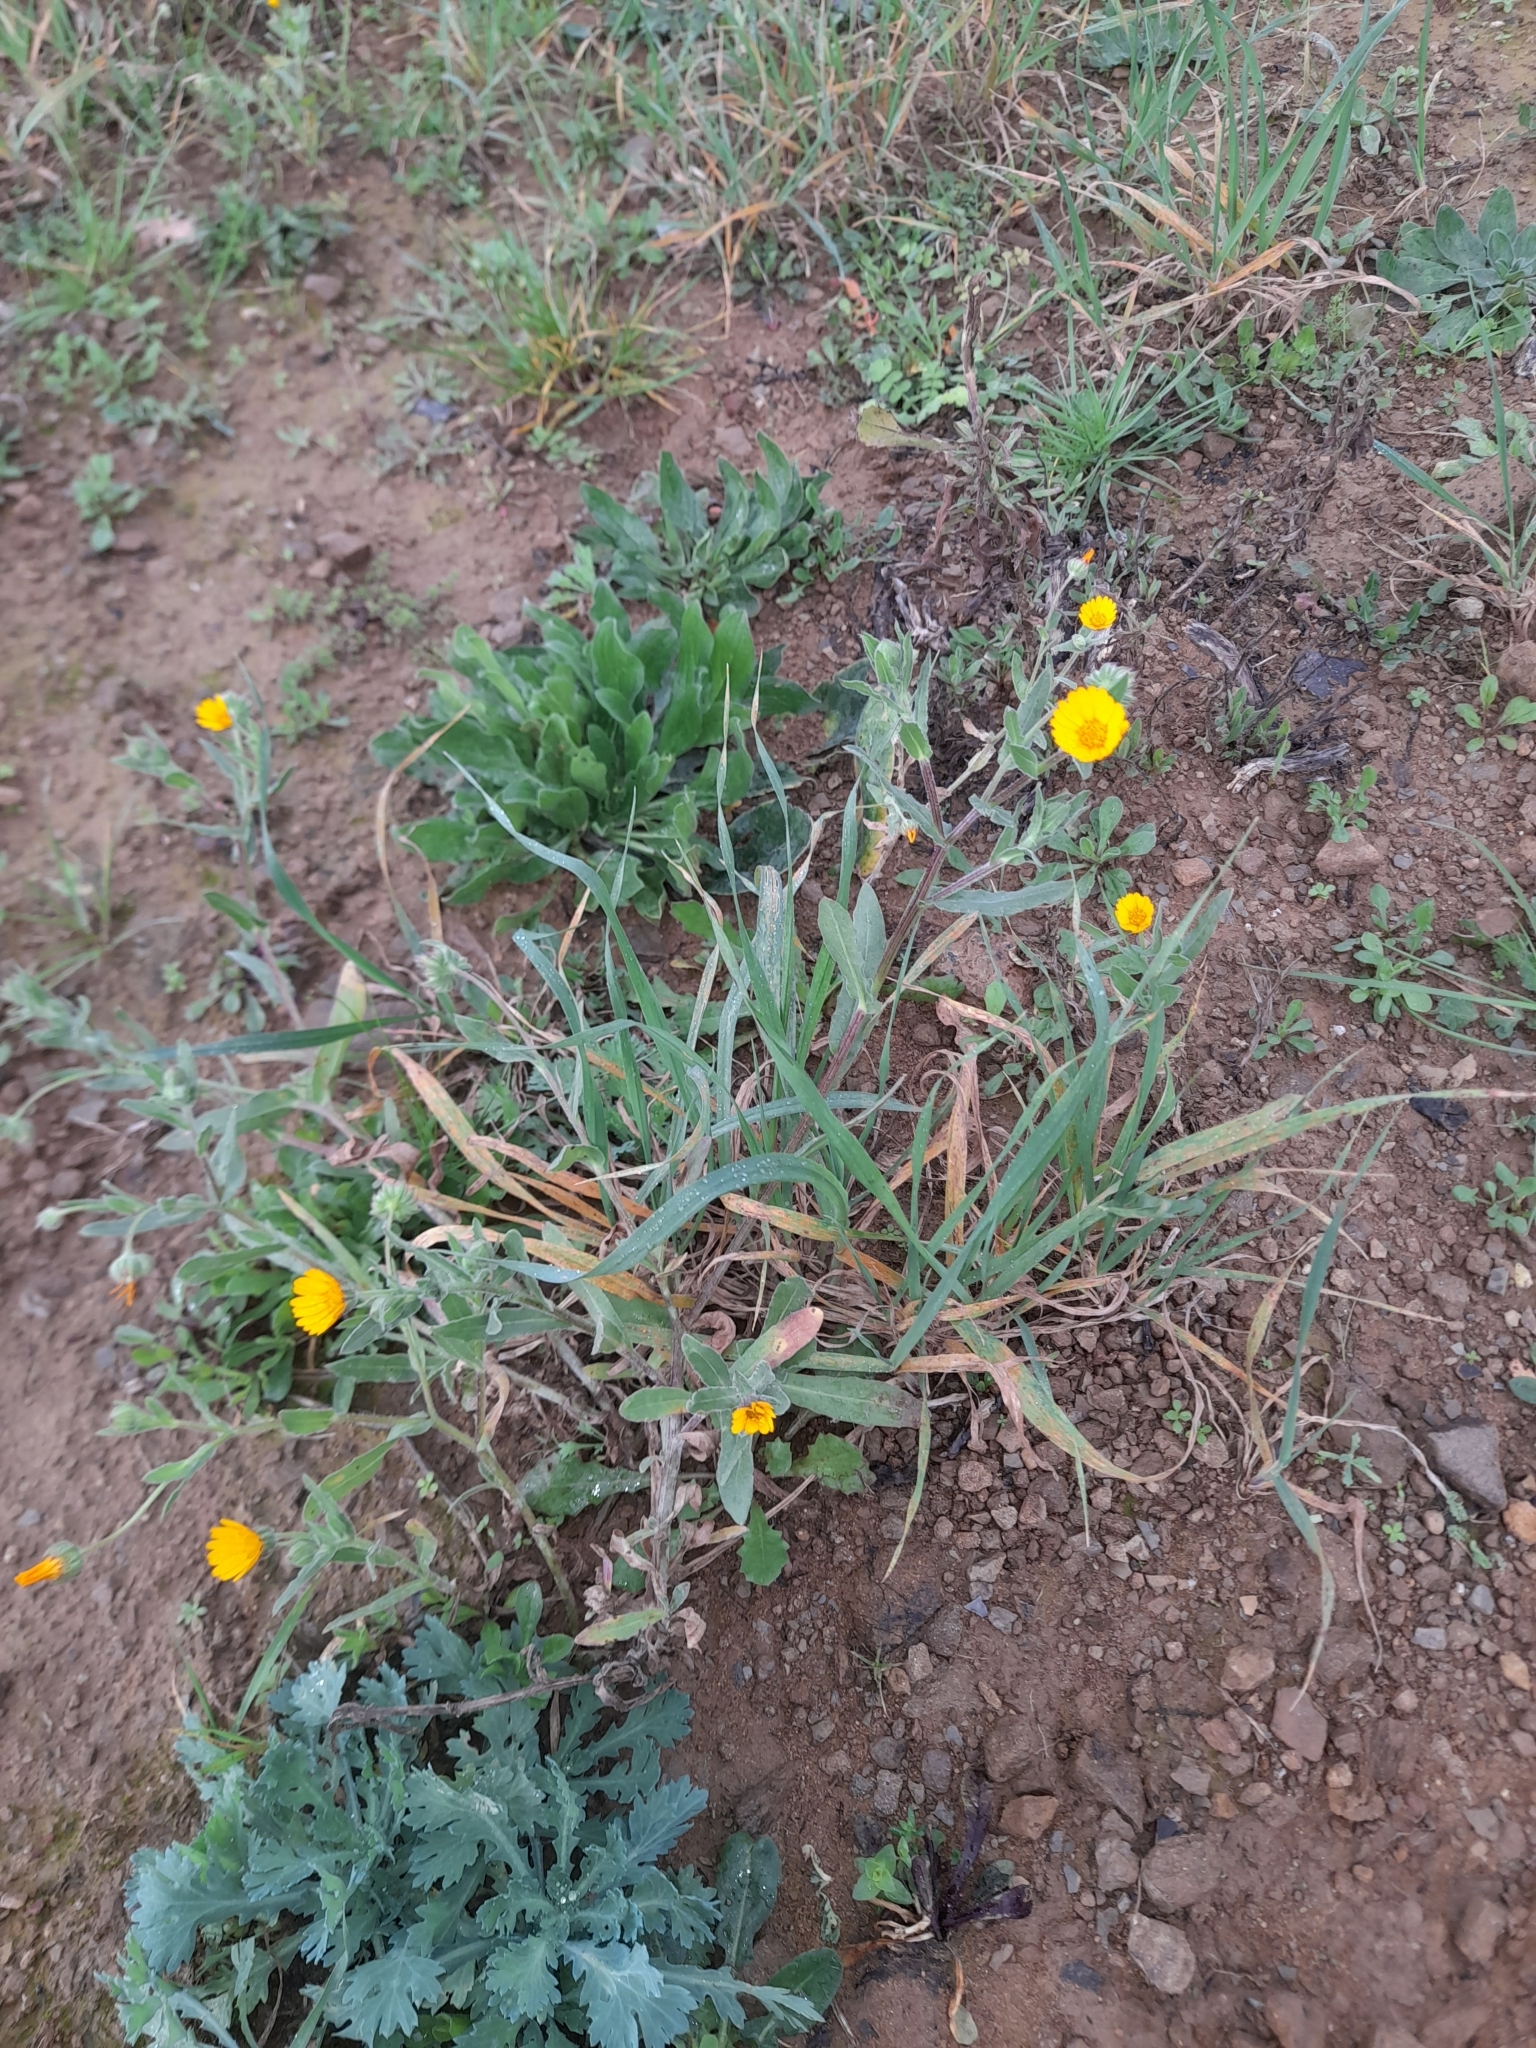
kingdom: Plantae
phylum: Tracheophyta
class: Magnoliopsida
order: Asterales
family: Asteraceae
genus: Calendula
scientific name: Calendula arvensis
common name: Field marigold
